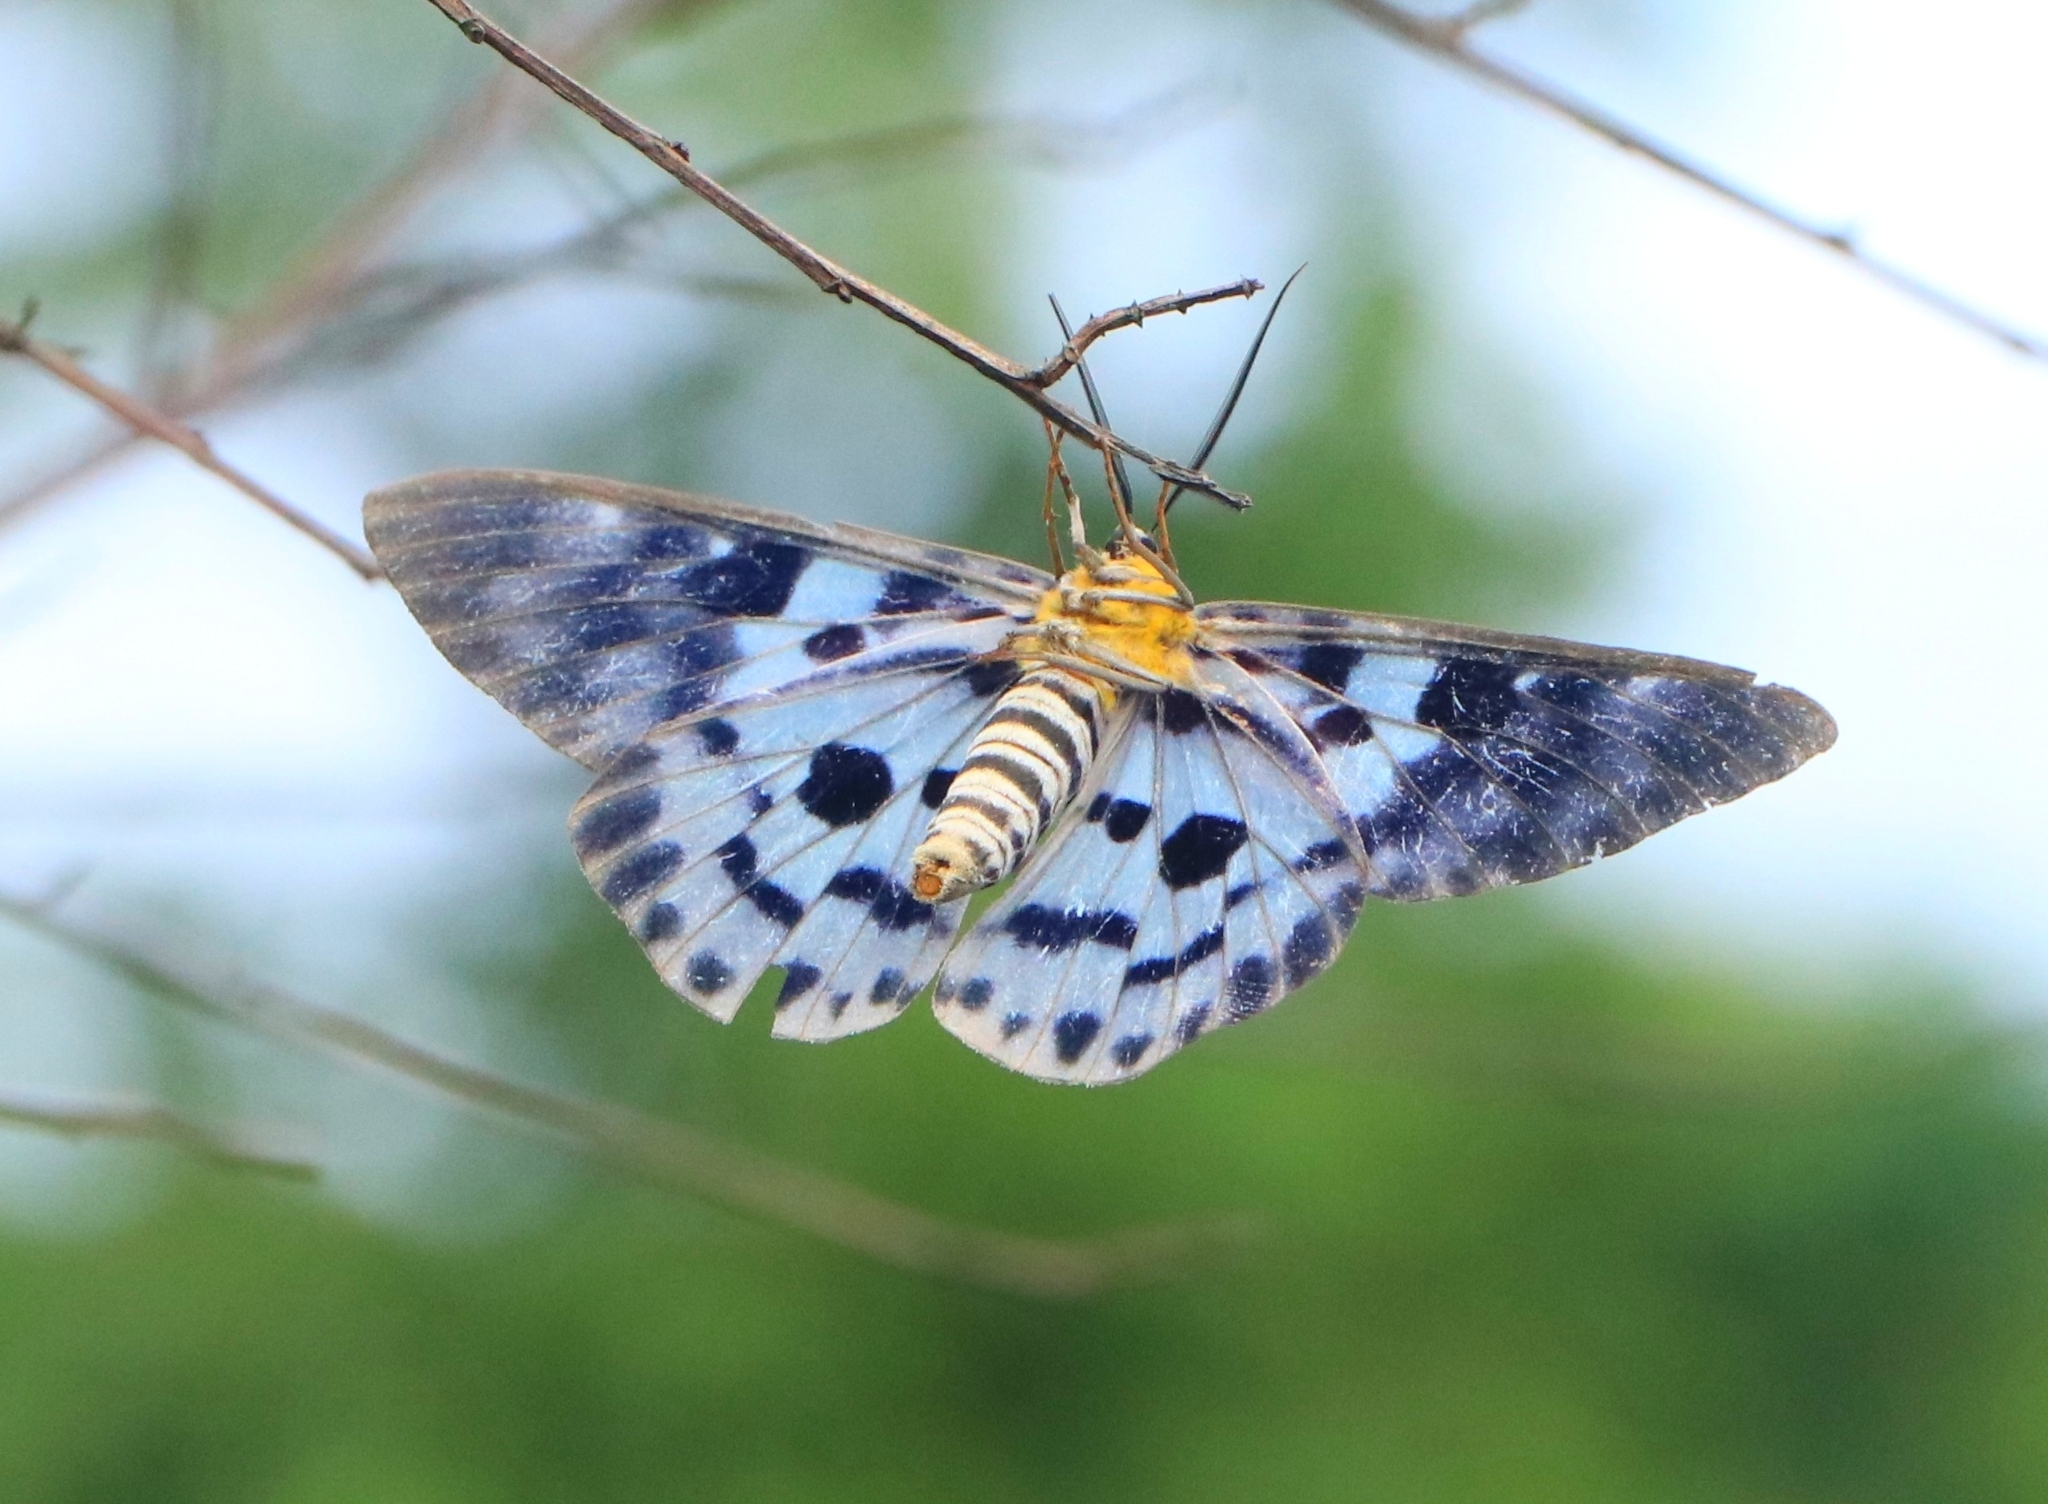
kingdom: Animalia
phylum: Arthropoda
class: Insecta
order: Lepidoptera
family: Geometridae
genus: Dysphania
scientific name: Dysphania percota
